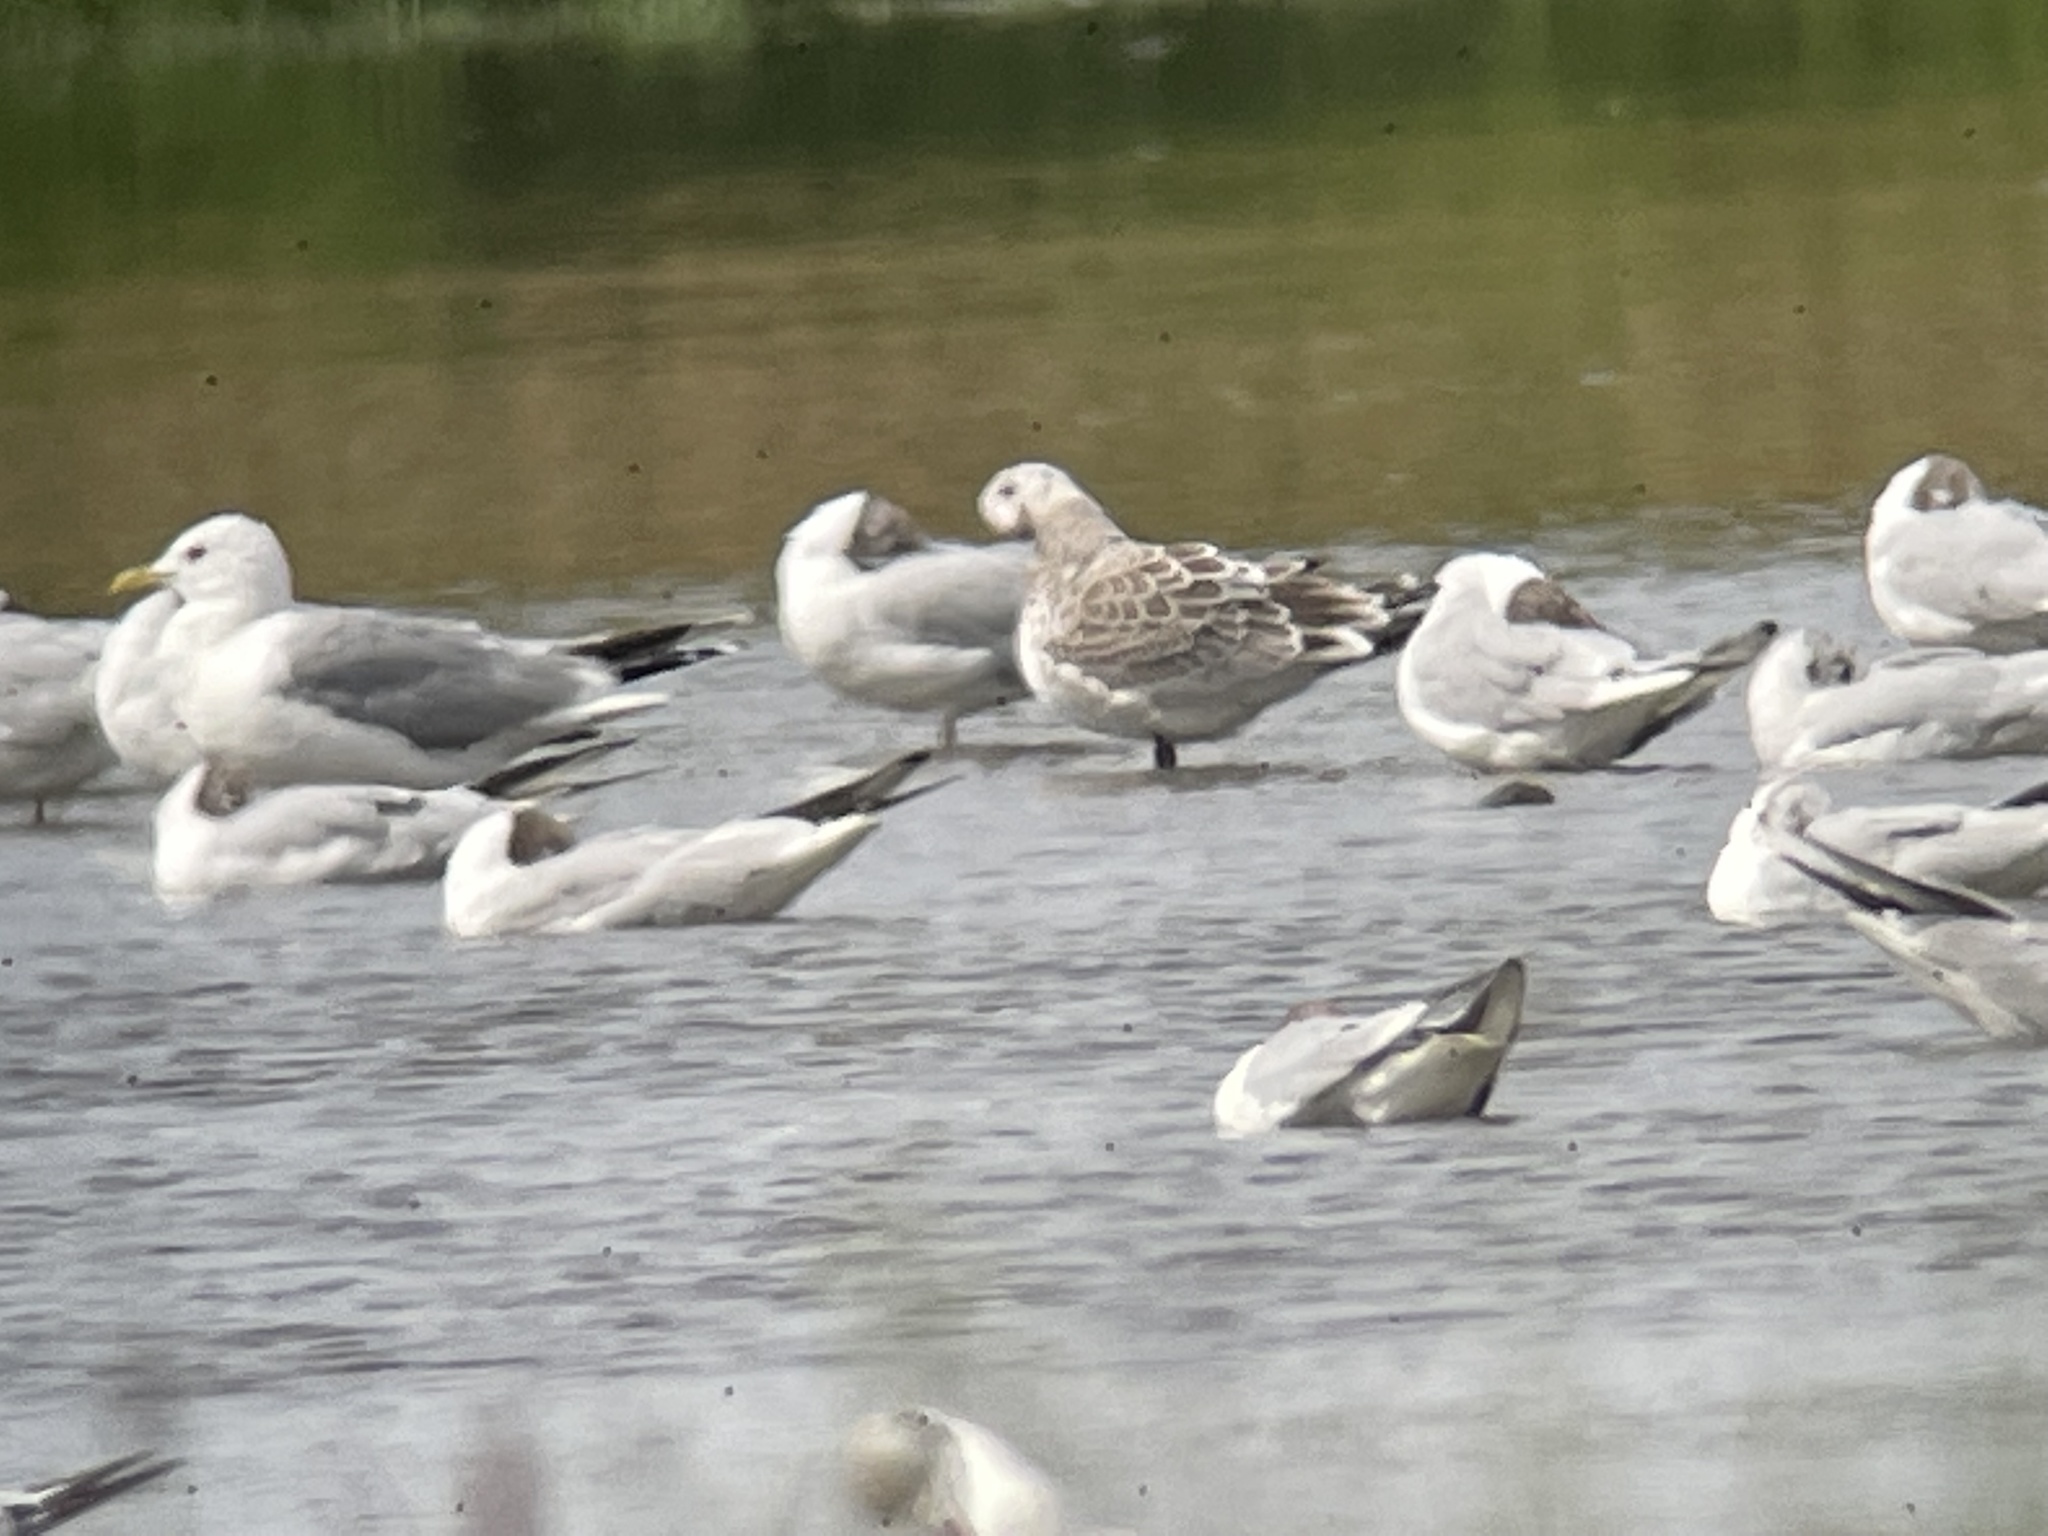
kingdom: Animalia
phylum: Chordata
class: Aves
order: Charadriiformes
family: Laridae
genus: Ichthyaetus
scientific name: Ichthyaetus melanocephalus
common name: Mediterranean gull
